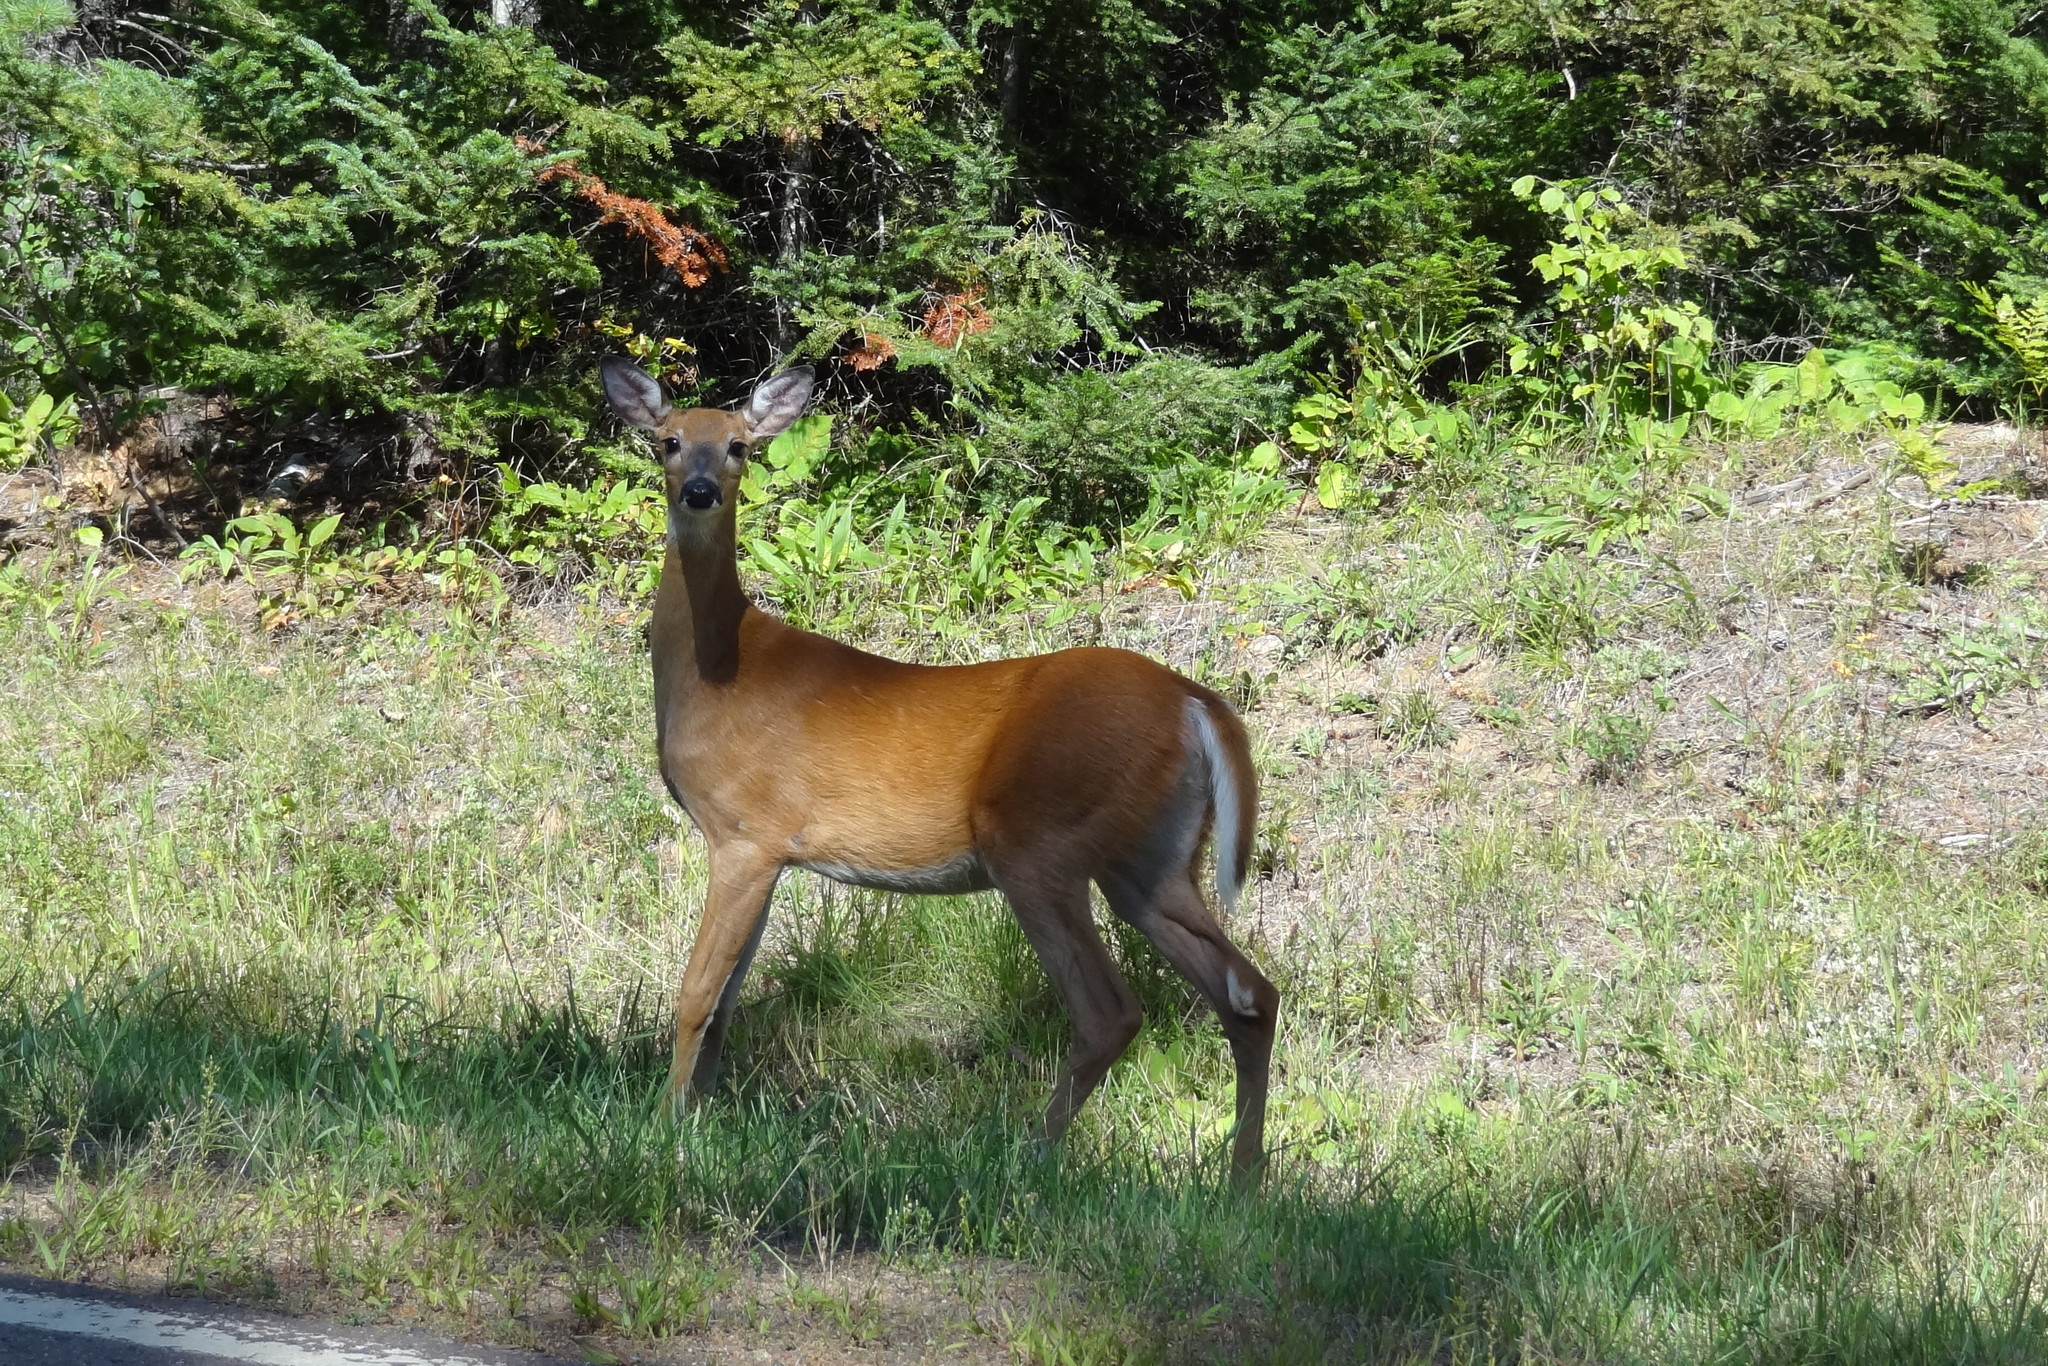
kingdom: Animalia
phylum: Chordata
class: Mammalia
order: Artiodactyla
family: Cervidae
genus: Odocoileus
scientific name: Odocoileus virginianus
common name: White-tailed deer
